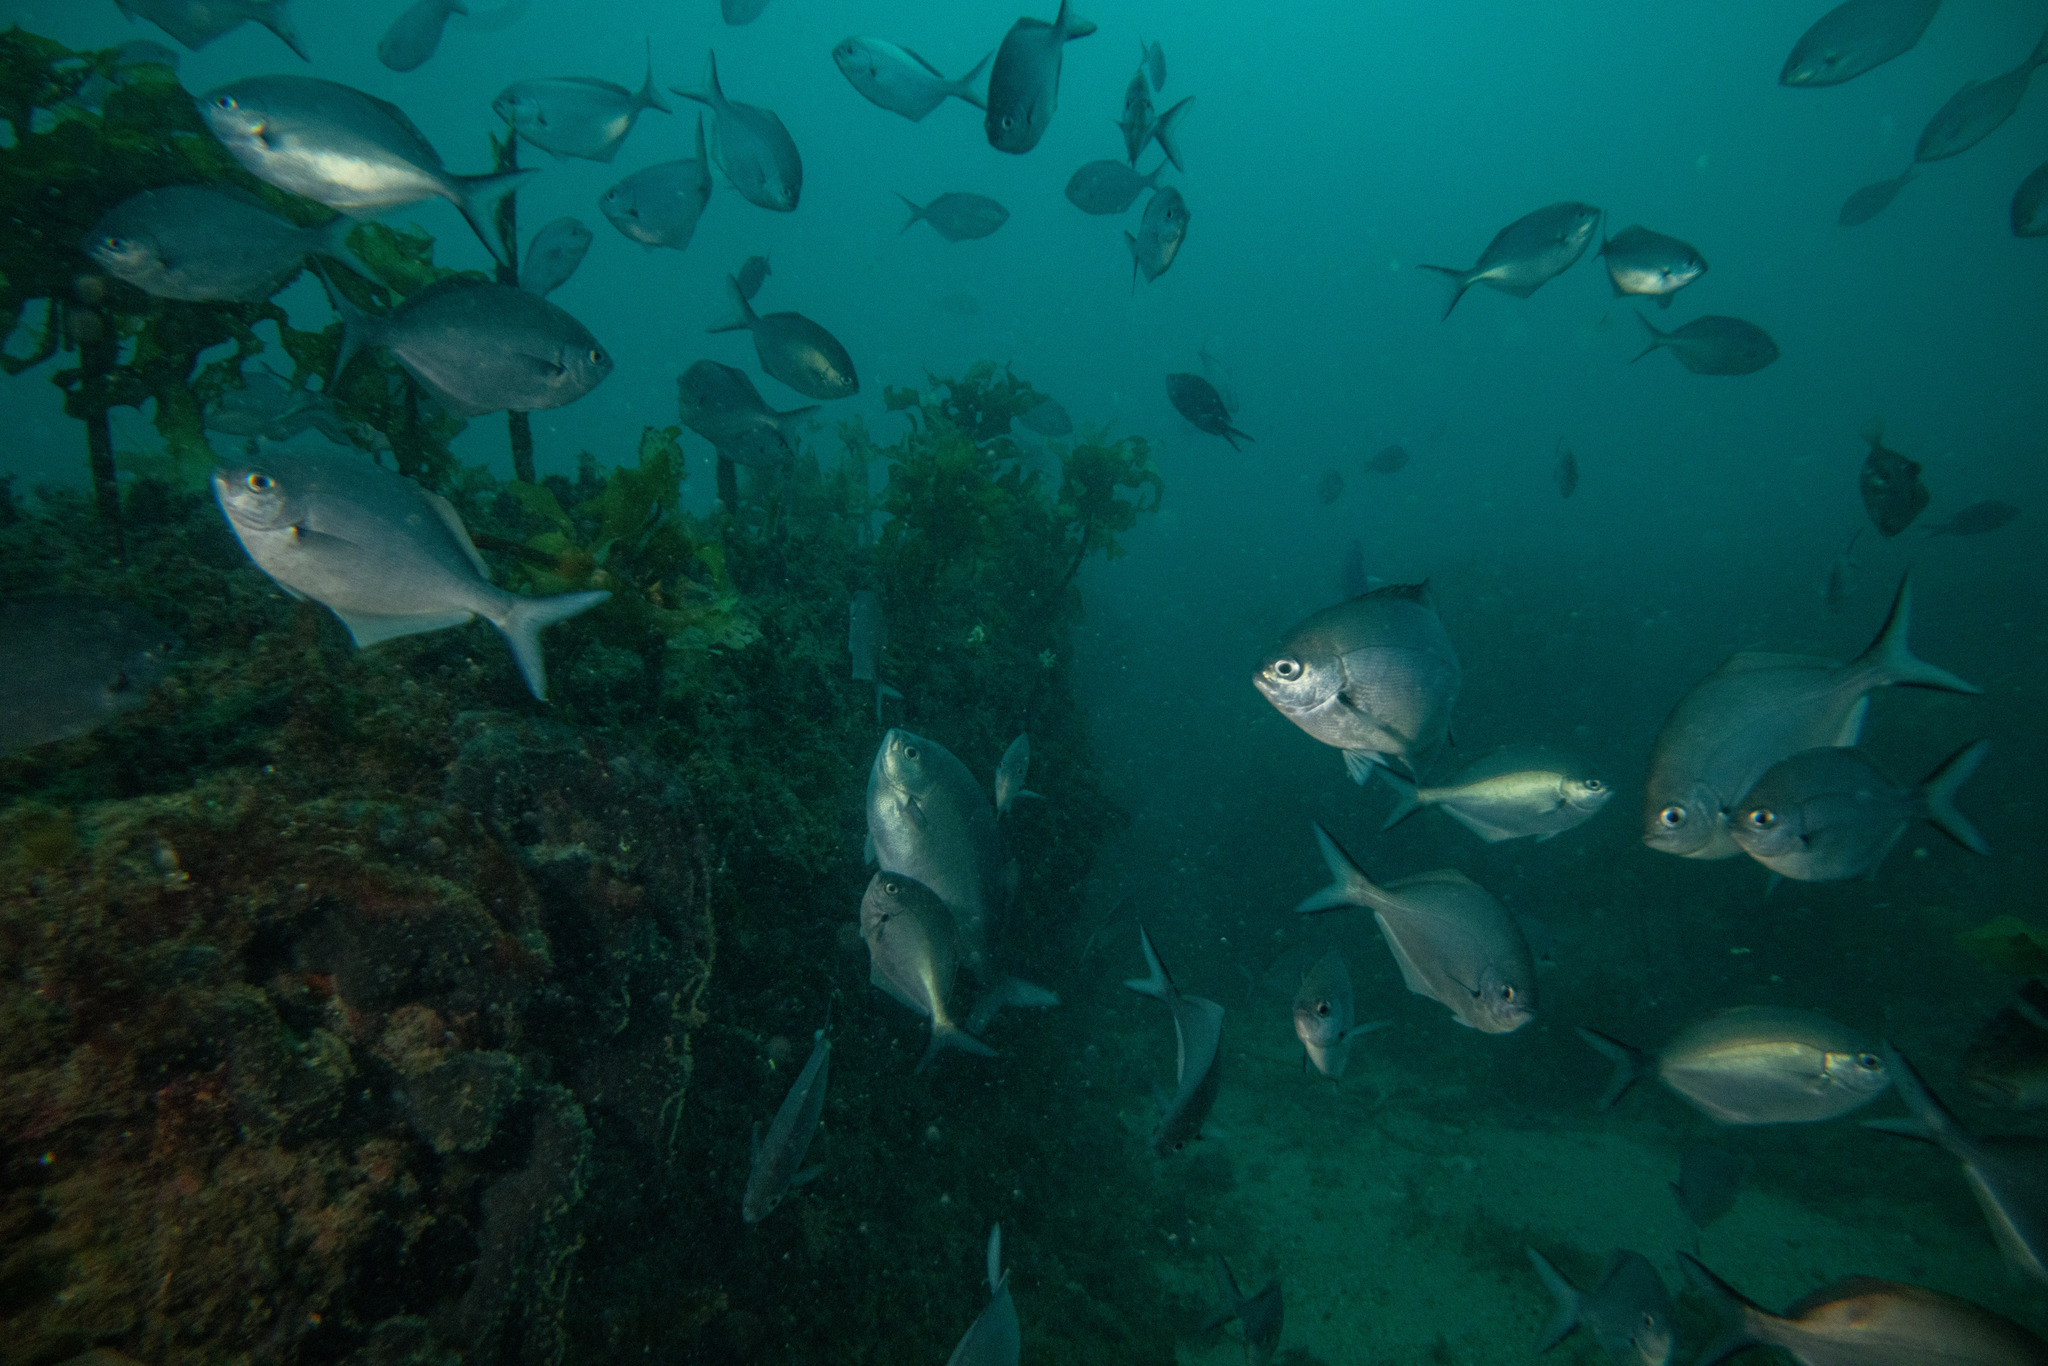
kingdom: Animalia
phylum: Chordata
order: Perciformes
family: Kyphosidae
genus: Scorpis
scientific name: Scorpis lineolata
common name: Sweep
